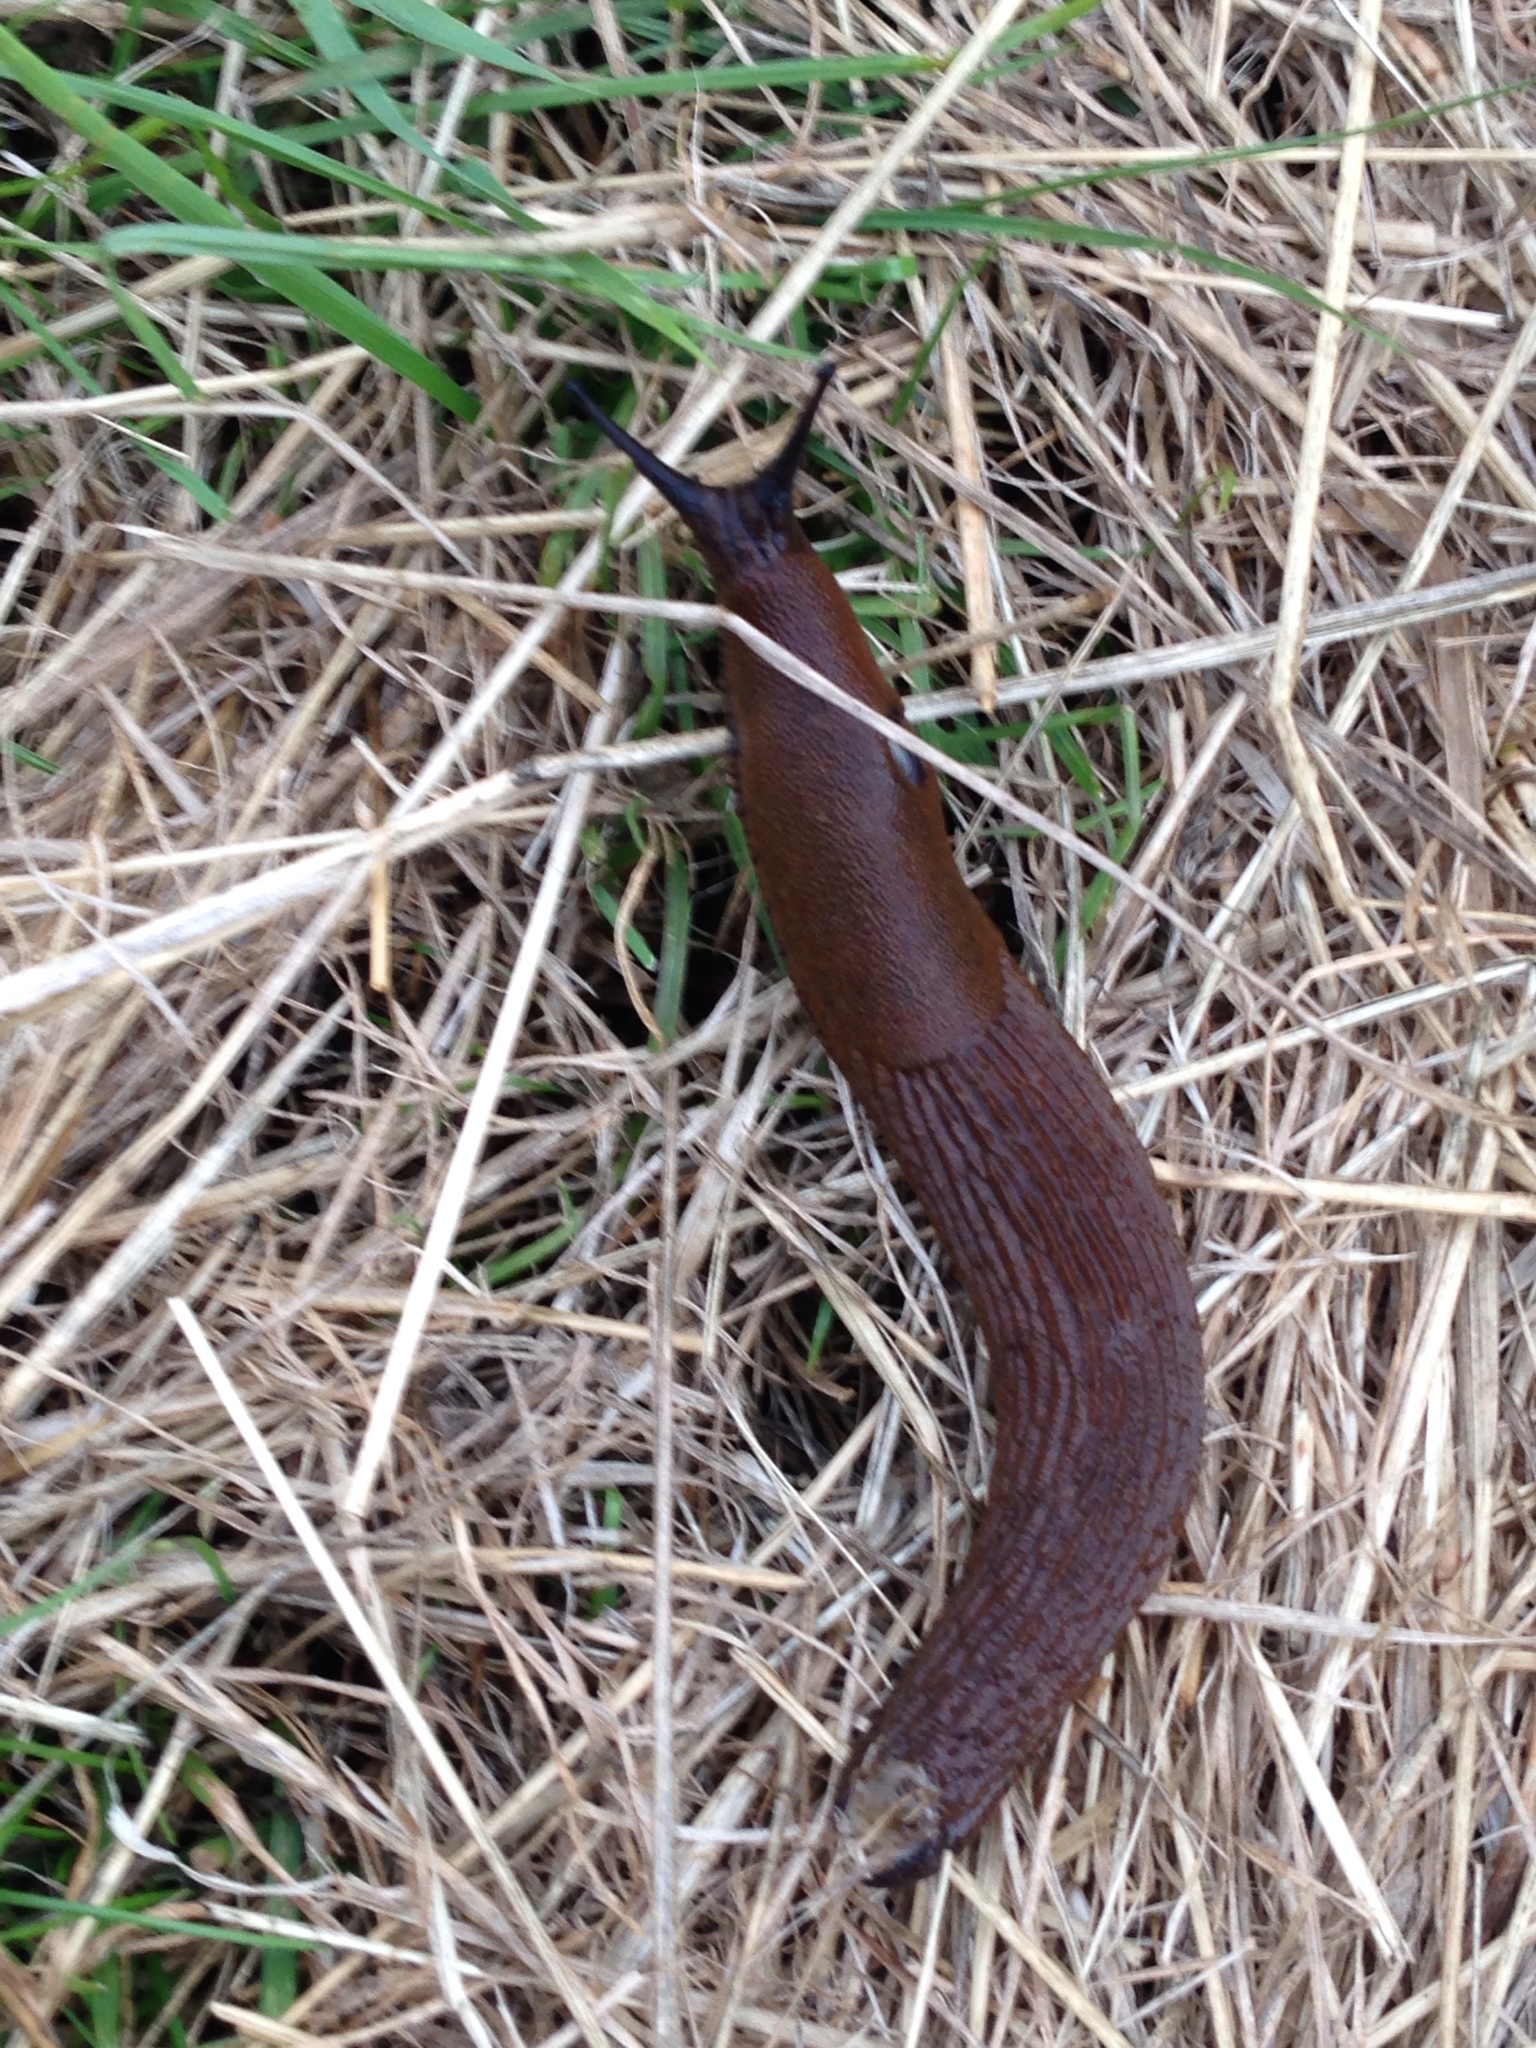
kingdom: Animalia
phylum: Mollusca
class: Gastropoda
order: Stylommatophora
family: Arionidae
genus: Arion
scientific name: Arion
